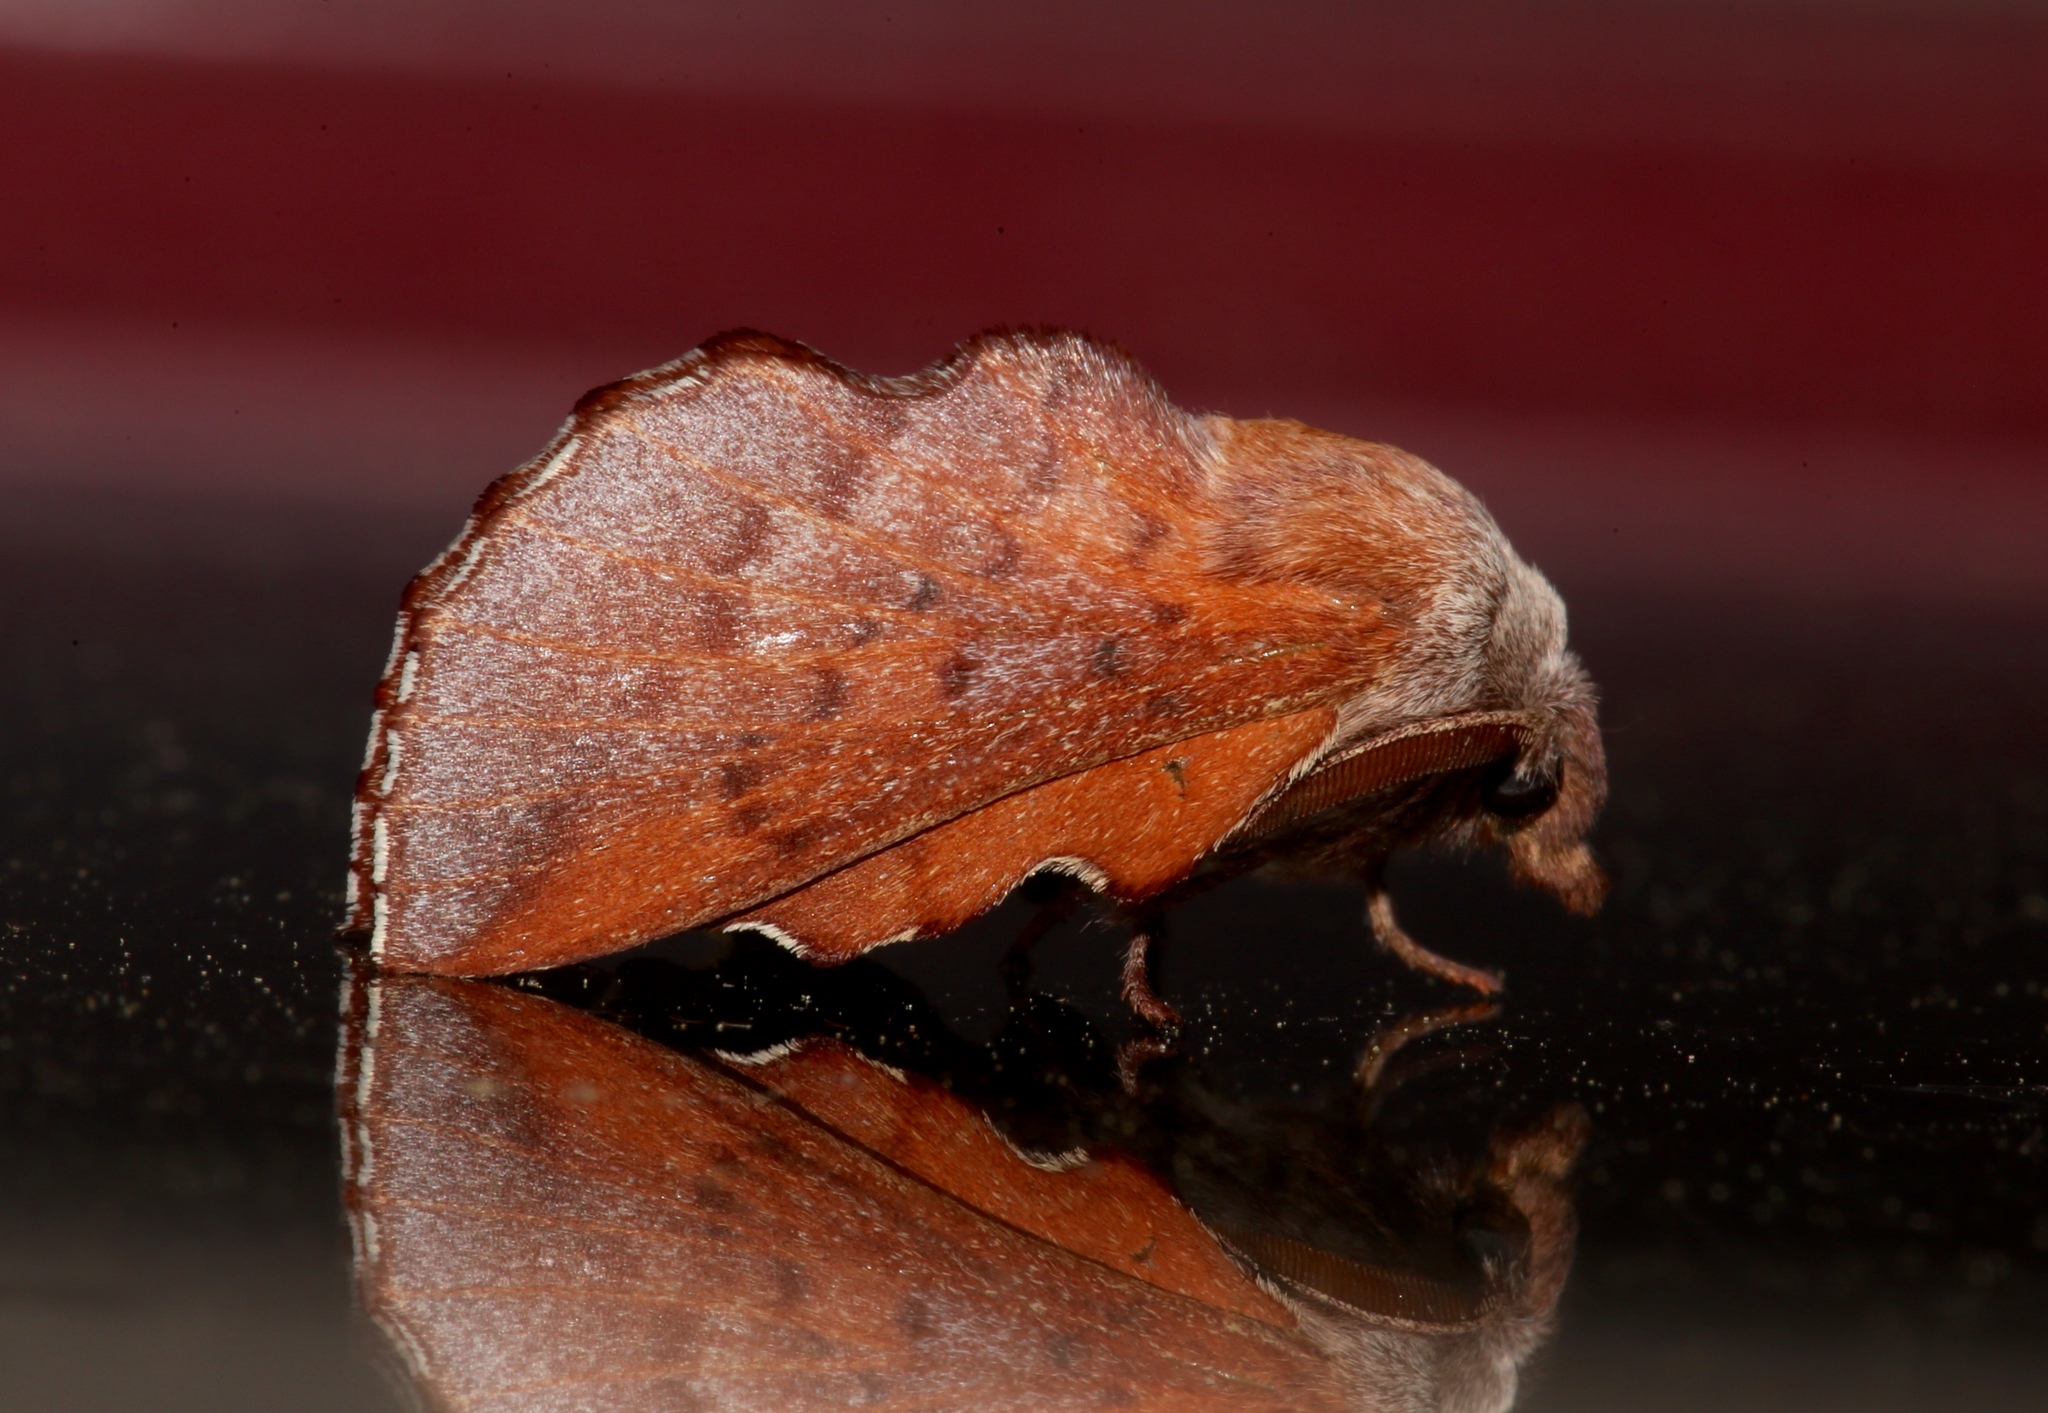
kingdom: Animalia
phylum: Arthropoda
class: Insecta
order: Lepidoptera
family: Lasiocampidae
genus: Phyllodesma
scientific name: Phyllodesma americana
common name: American lappet moth
